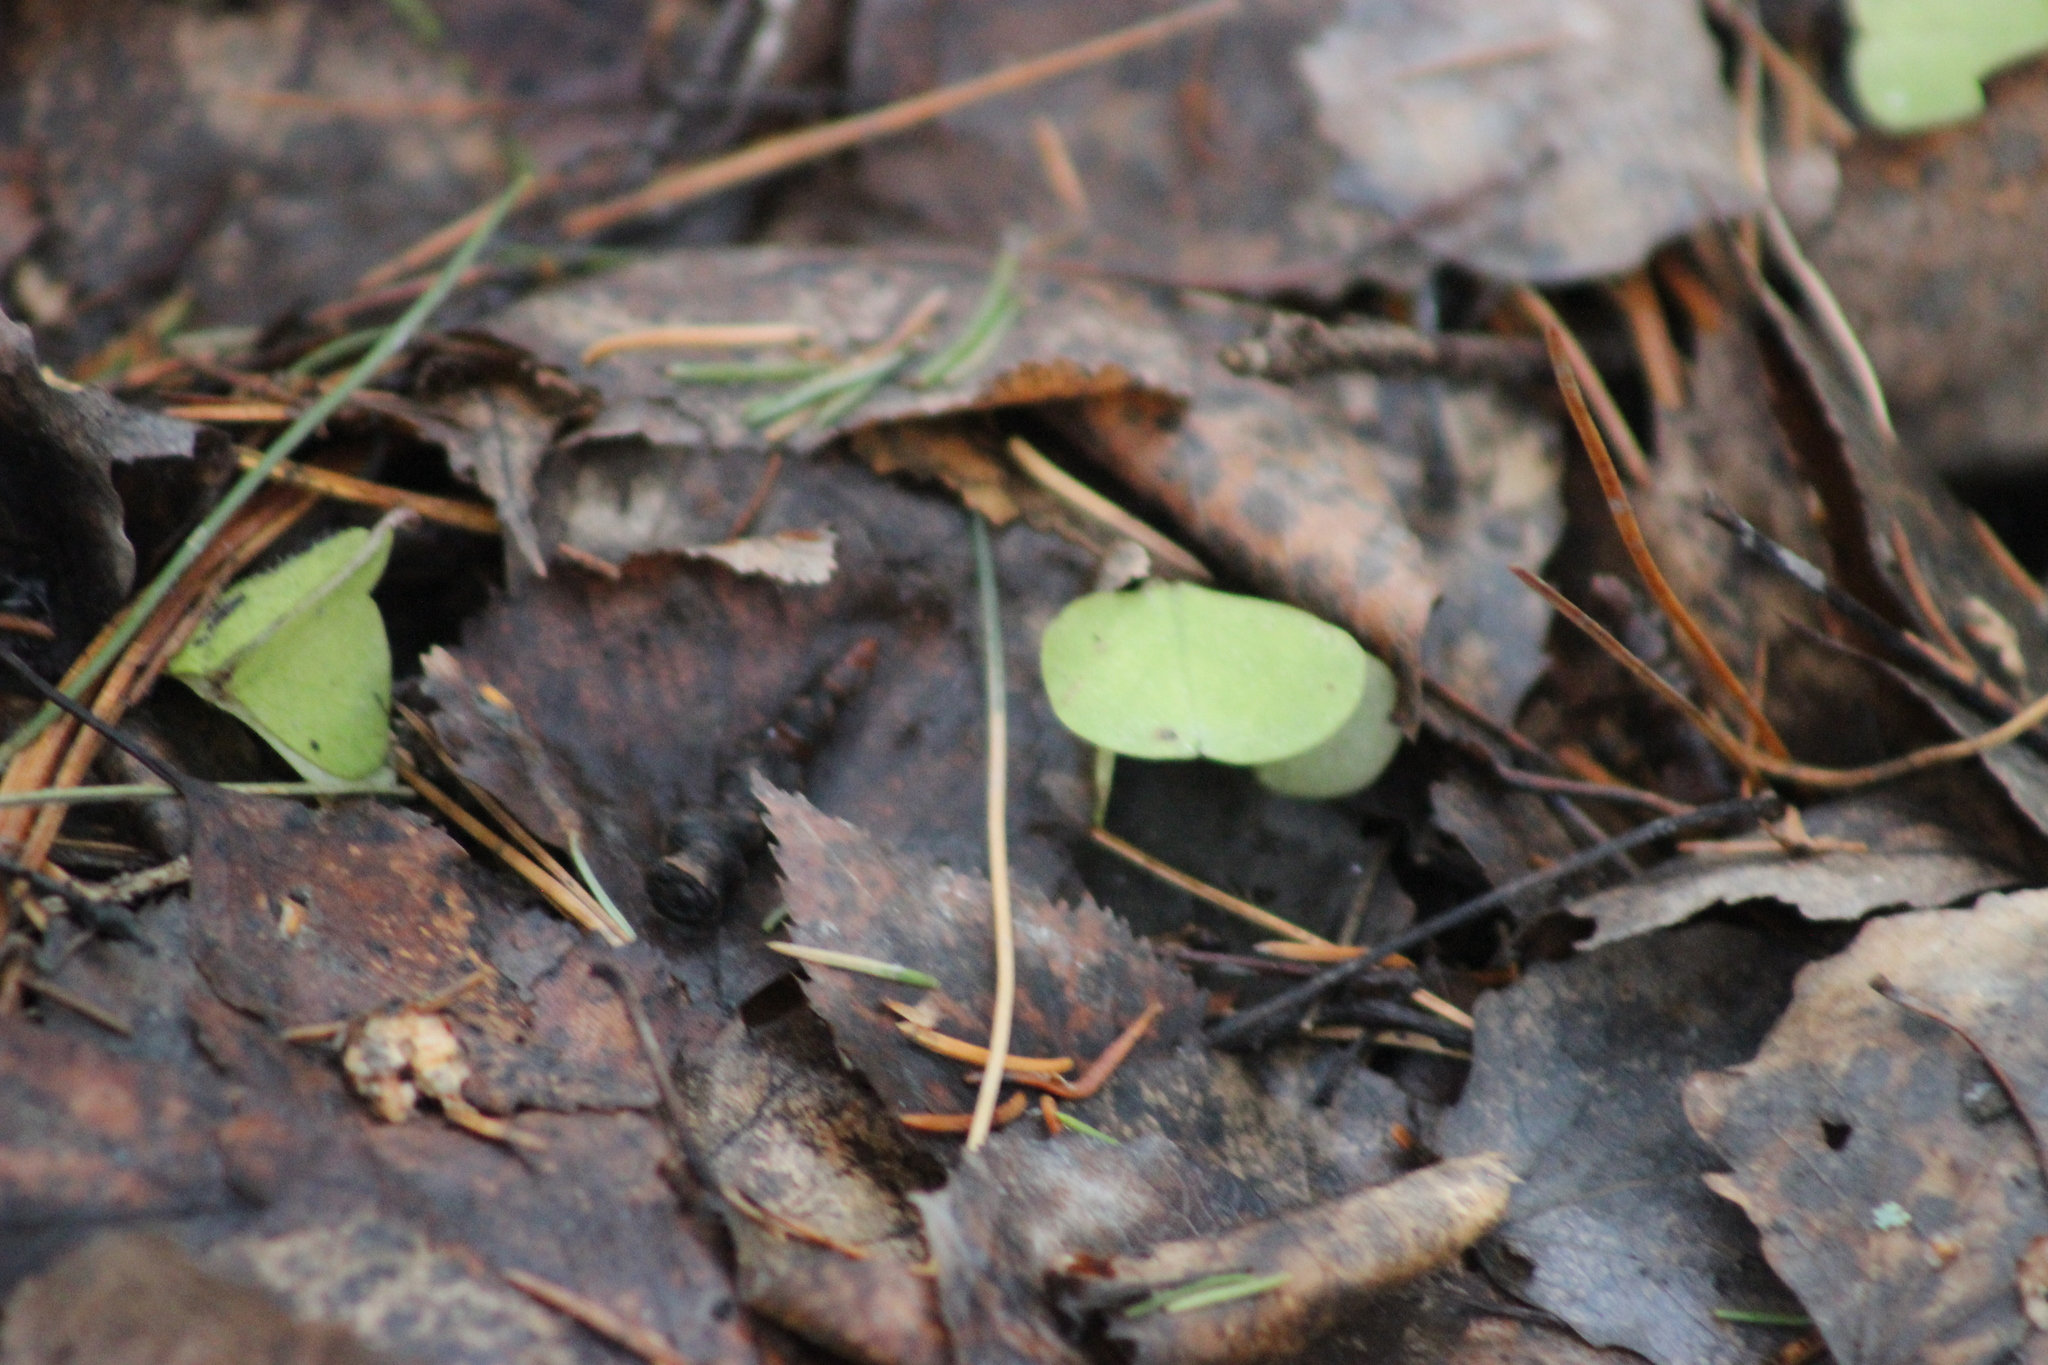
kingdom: Plantae
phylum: Tracheophyta
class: Magnoliopsida
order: Oxalidales
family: Oxalidaceae
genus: Oxalis
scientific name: Oxalis acetosella
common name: Wood-sorrel
